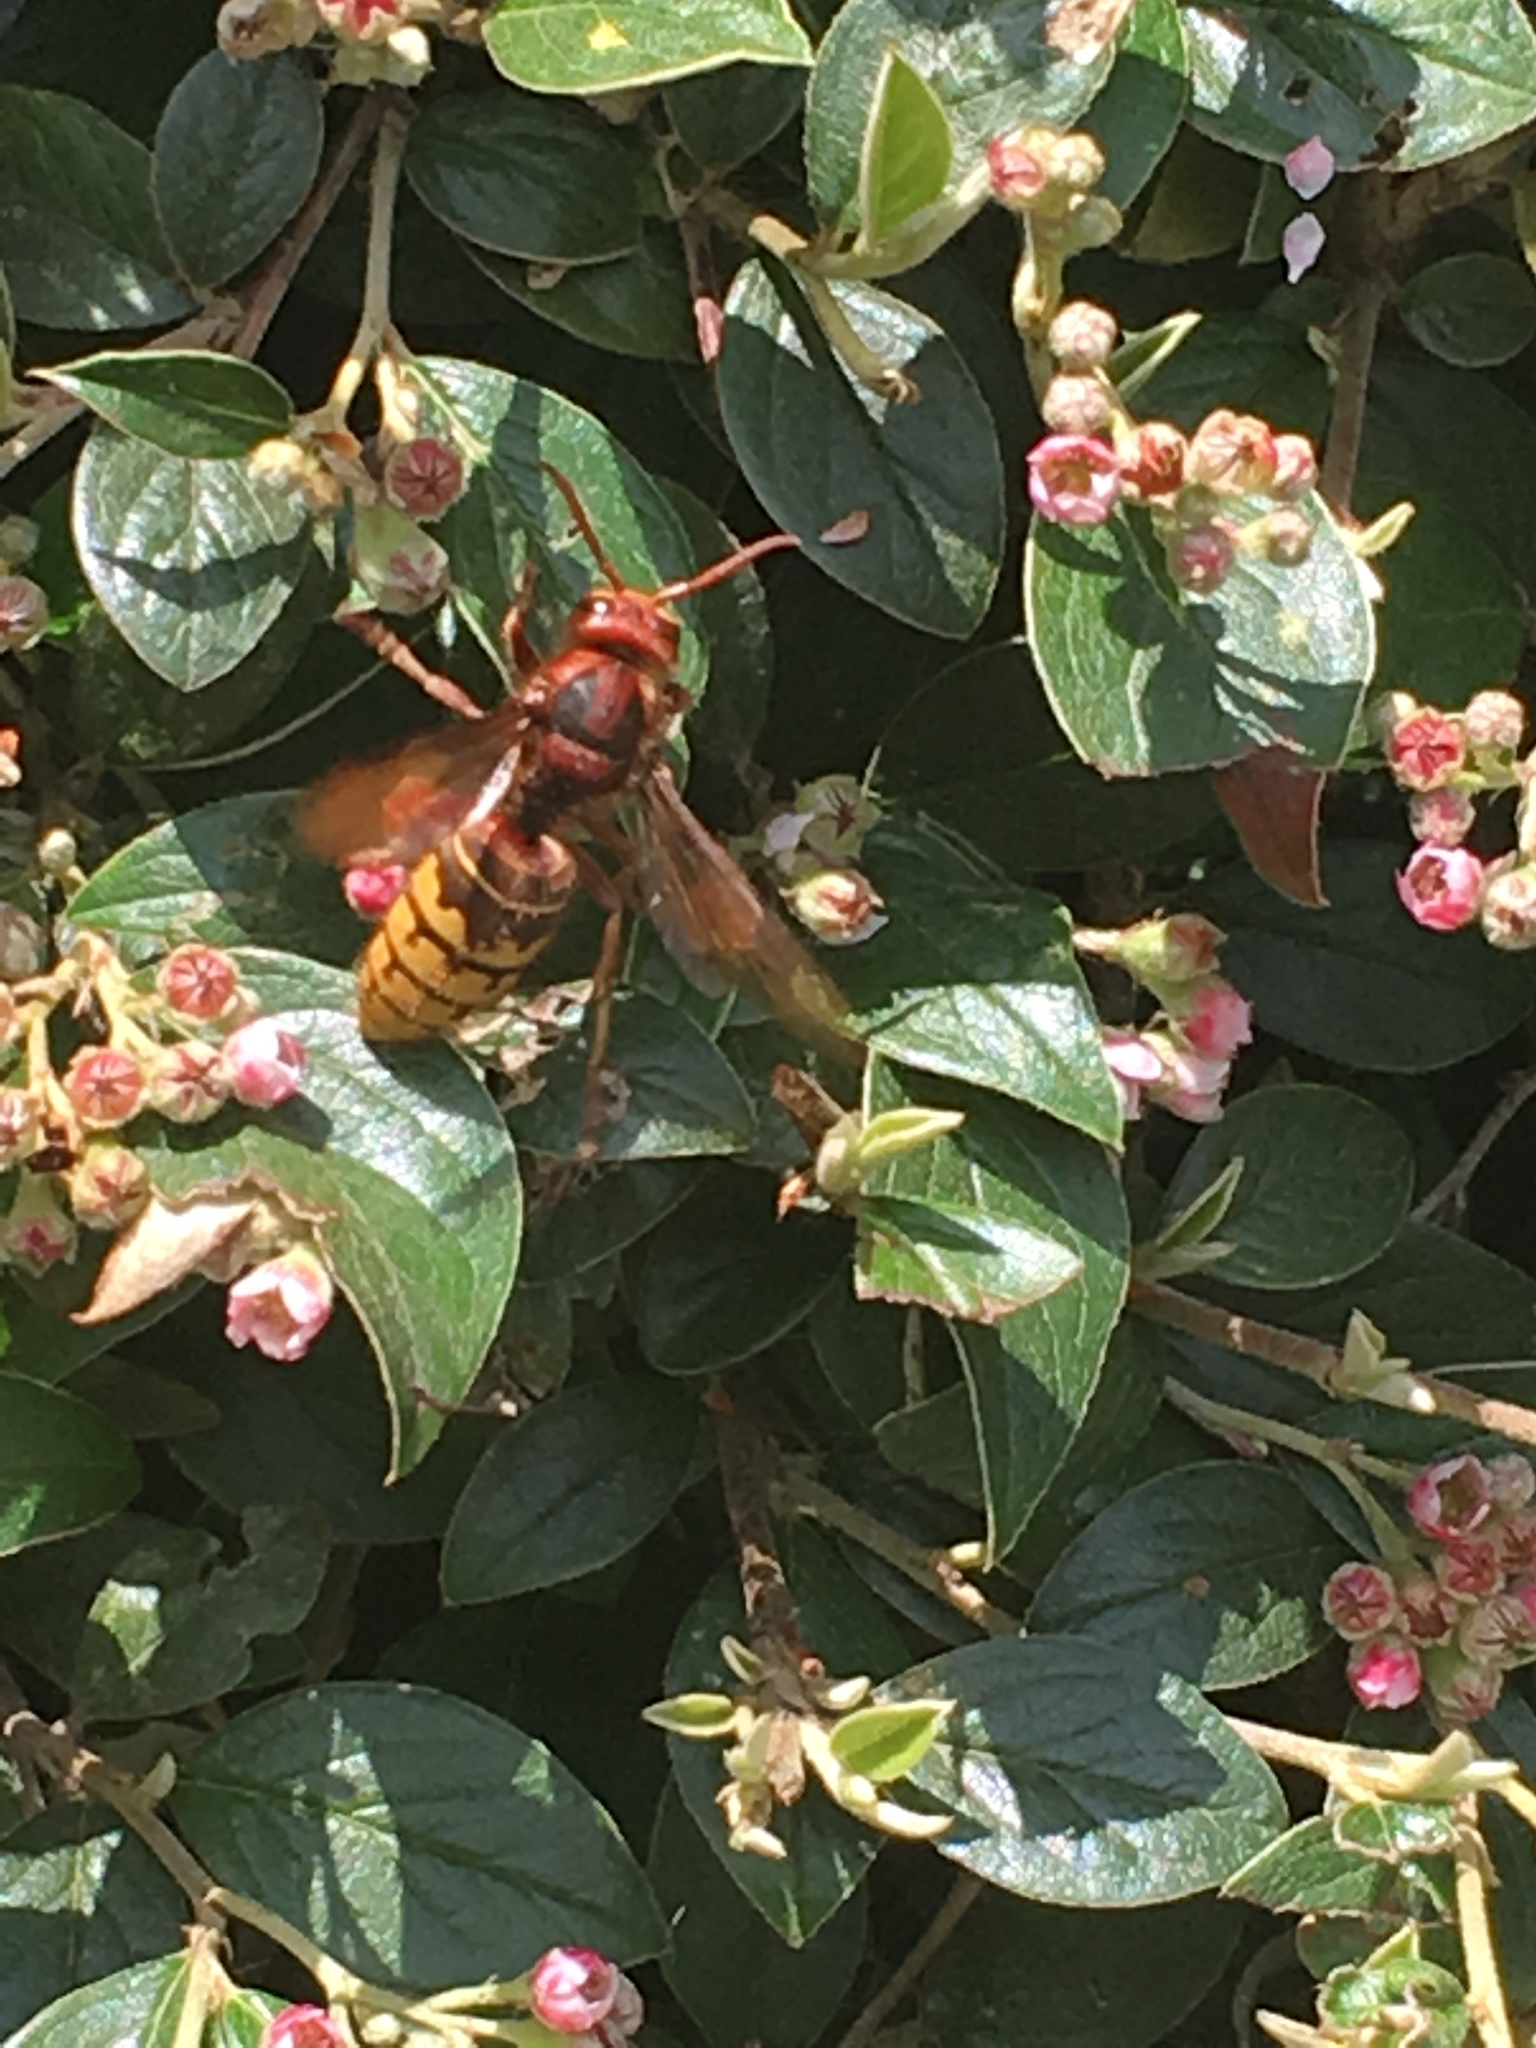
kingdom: Animalia
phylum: Arthropoda
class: Insecta
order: Hymenoptera
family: Vespidae
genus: Vespa
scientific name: Vespa crabro
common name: Hornet
